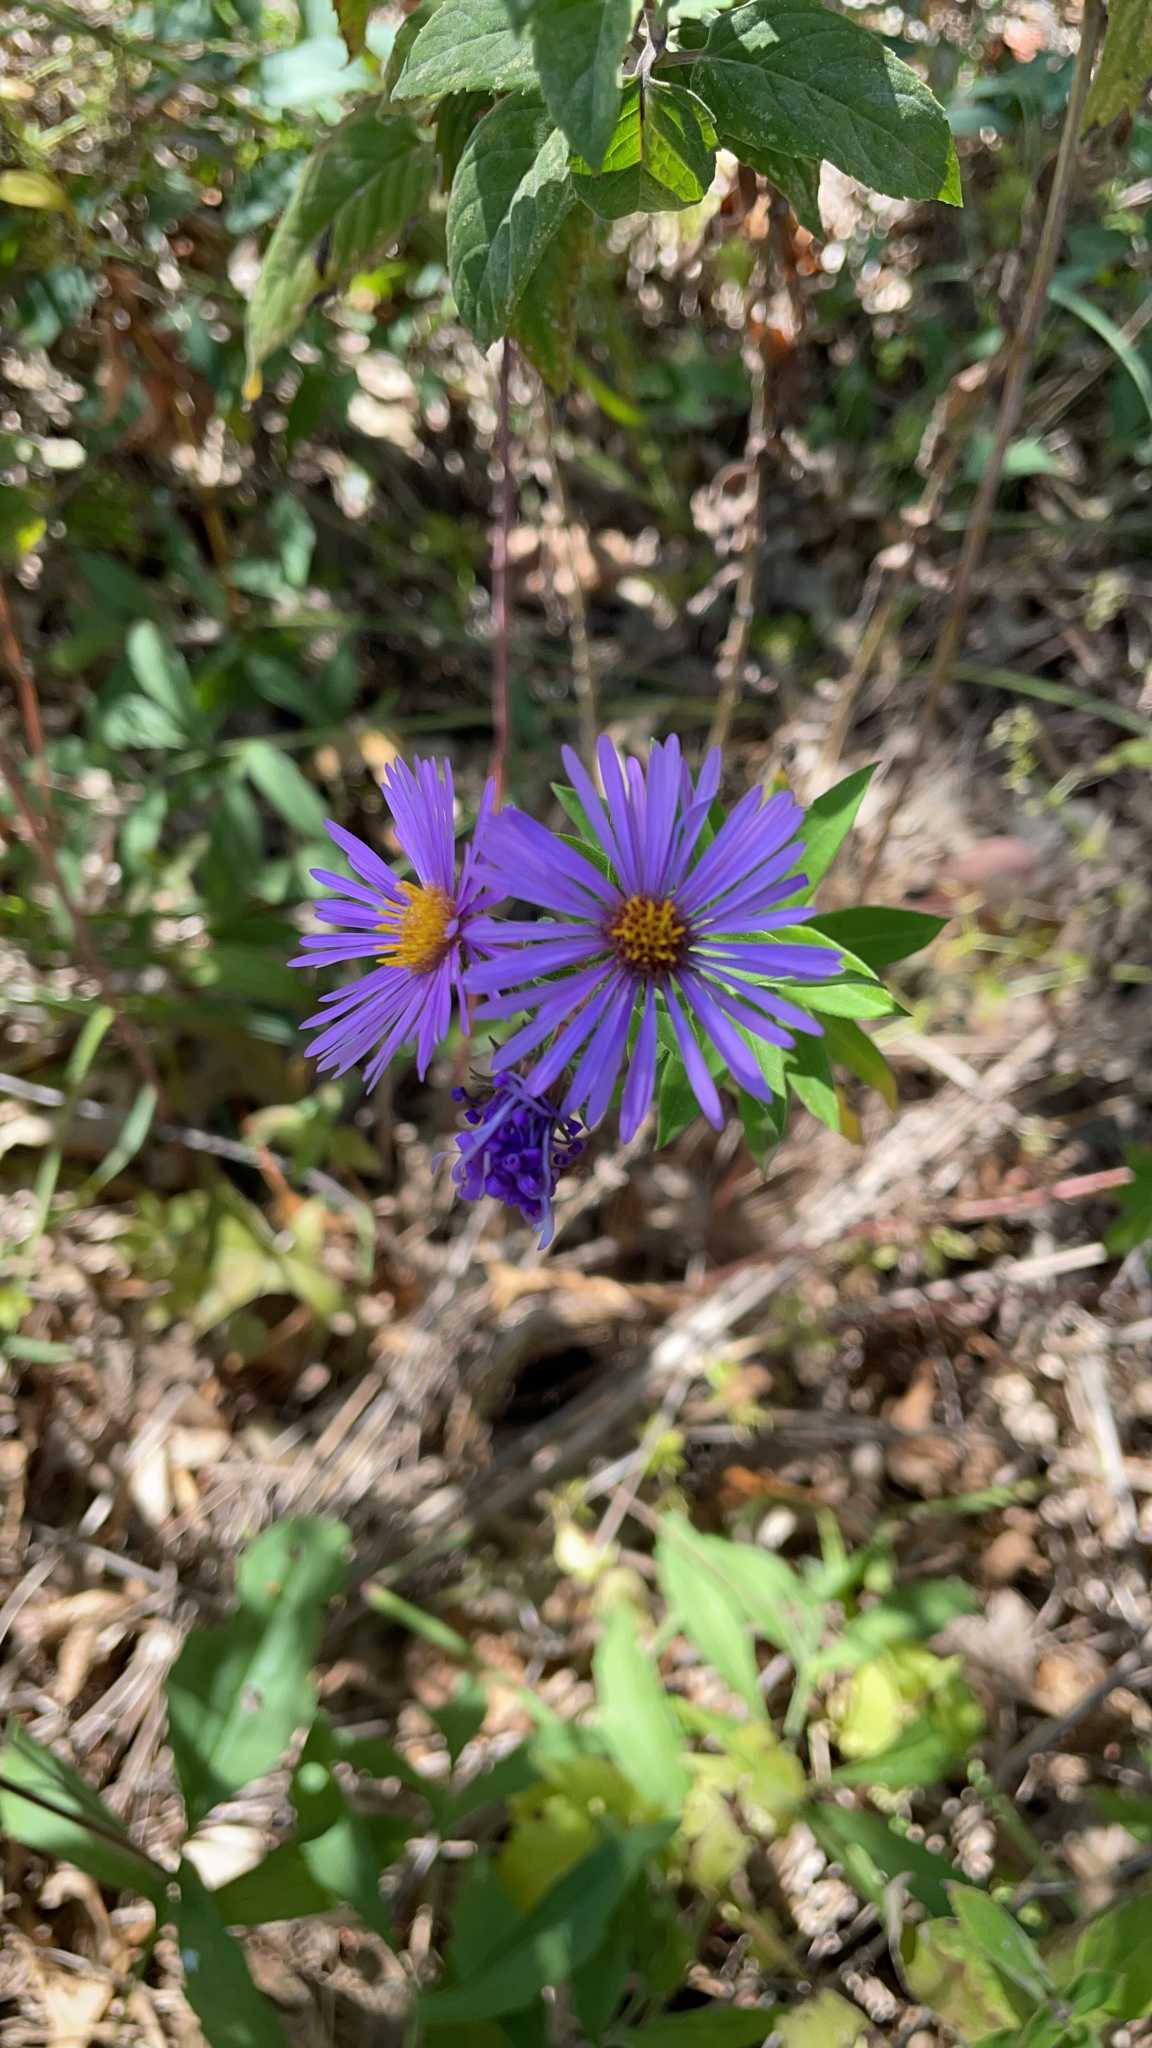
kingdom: Plantae
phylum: Tracheophyta
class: Magnoliopsida
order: Asterales
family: Asteraceae
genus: Symphyotrichum
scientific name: Symphyotrichum novae-angliae
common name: Michaelmas daisy
